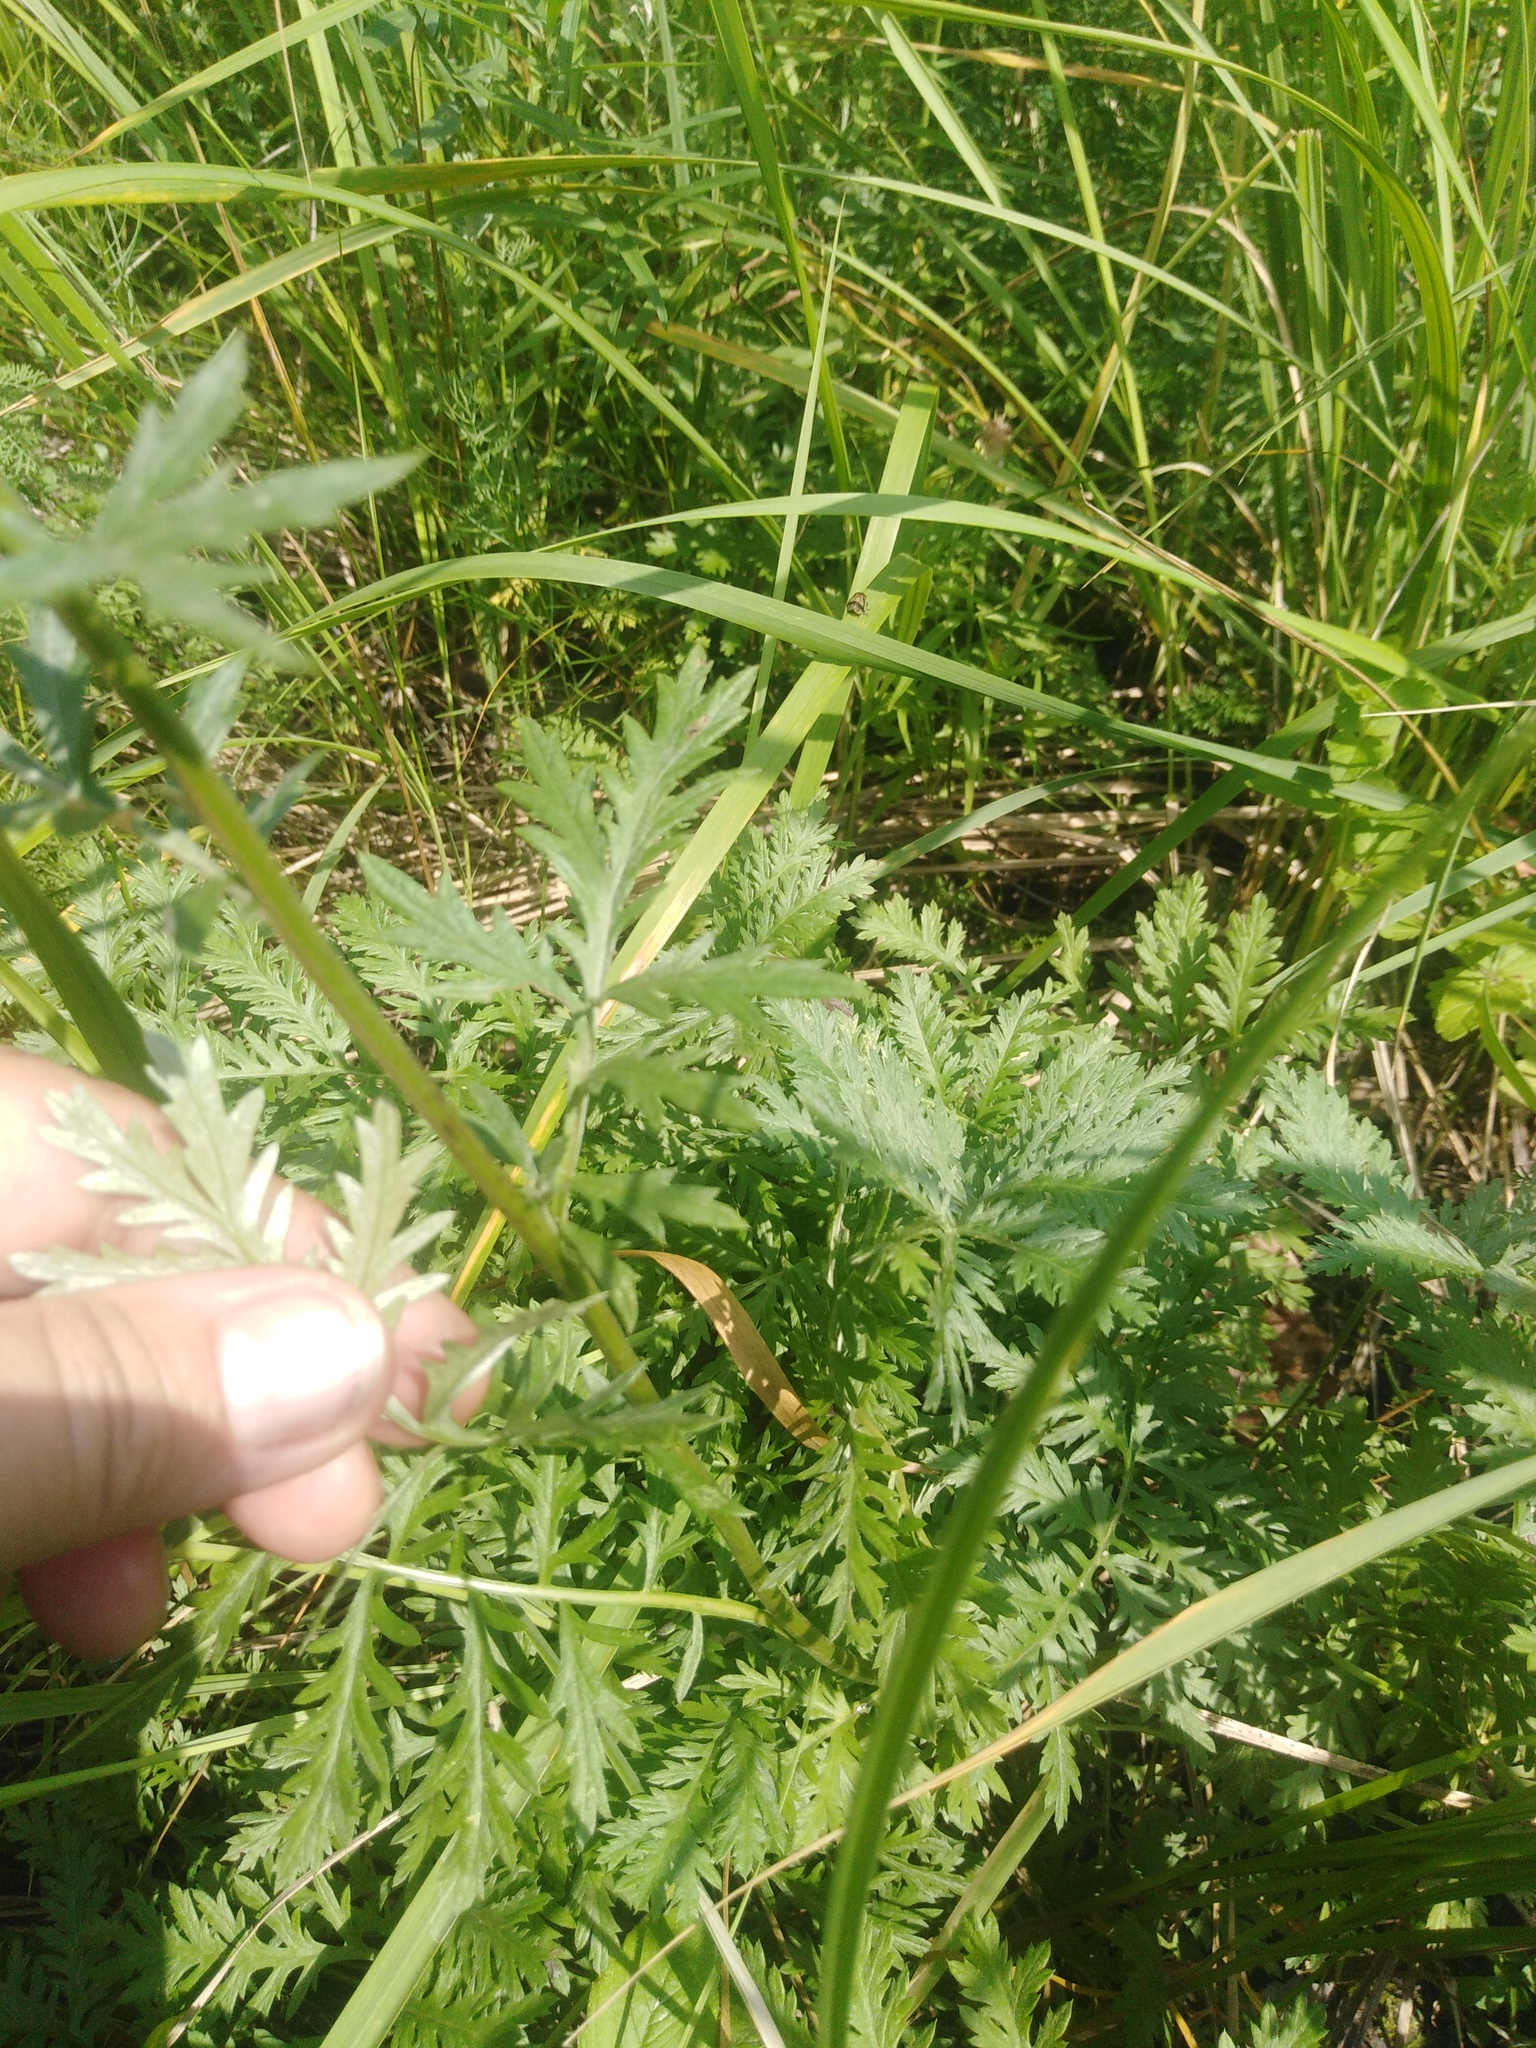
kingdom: Plantae
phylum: Tracheophyta
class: Magnoliopsida
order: Asterales
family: Asteraceae
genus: Artemisia
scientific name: Artemisia armeniaca
